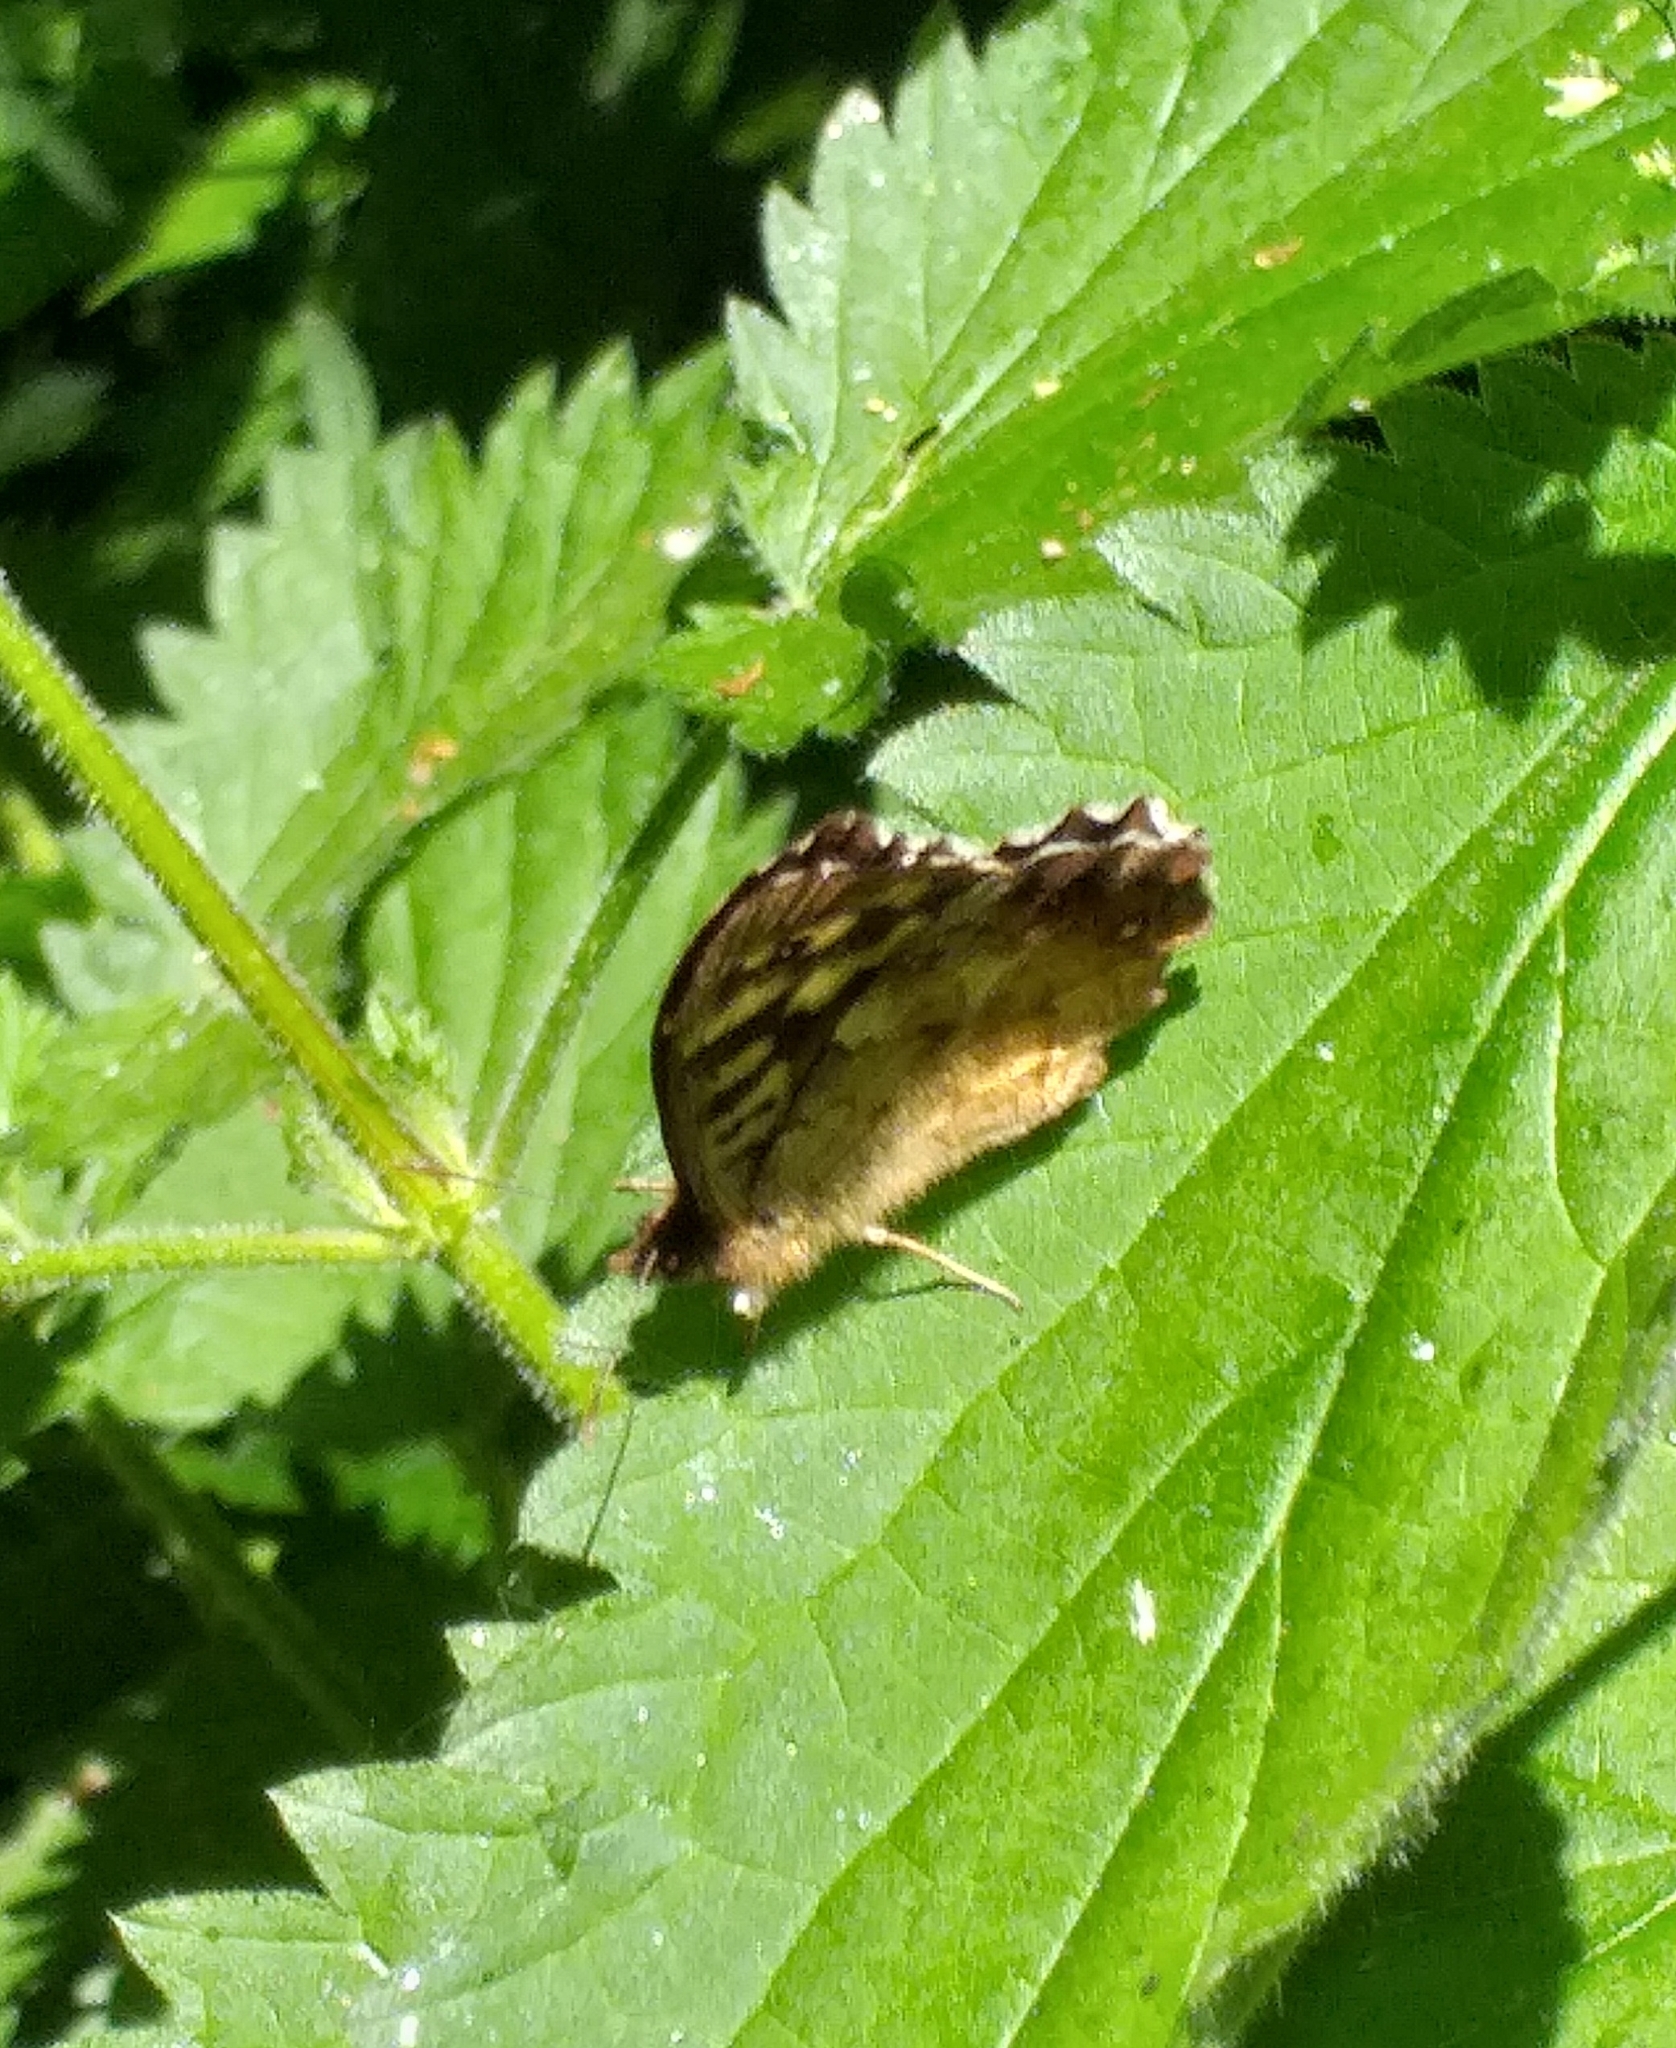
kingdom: Animalia
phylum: Arthropoda
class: Insecta
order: Lepidoptera
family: Nymphalidae
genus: Pararge
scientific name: Pararge aegeria
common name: Speckled wood
